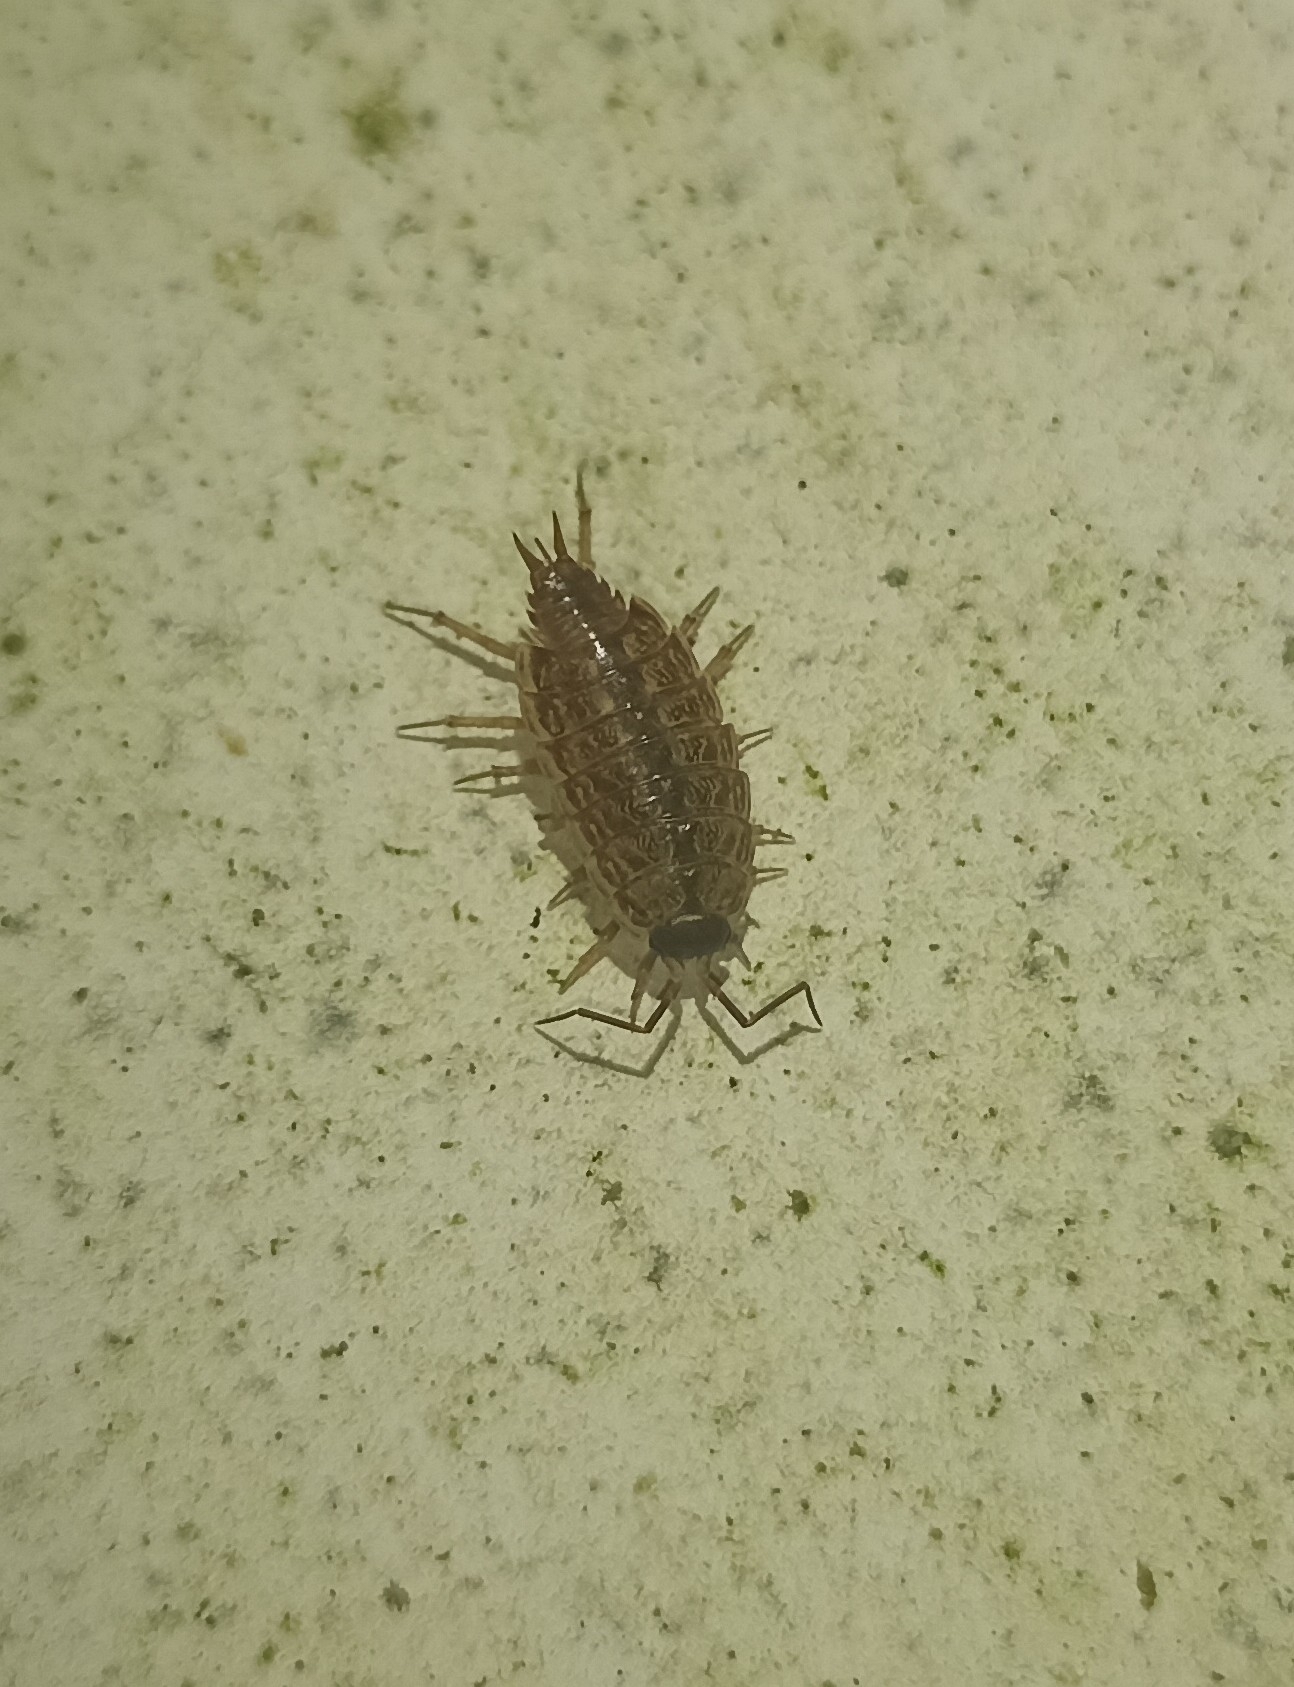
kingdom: Animalia
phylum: Arthropoda
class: Malacostraca
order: Isopoda
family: Philosciidae
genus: Philoscia
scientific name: Philoscia muscorum
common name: Common striped woodlouse
